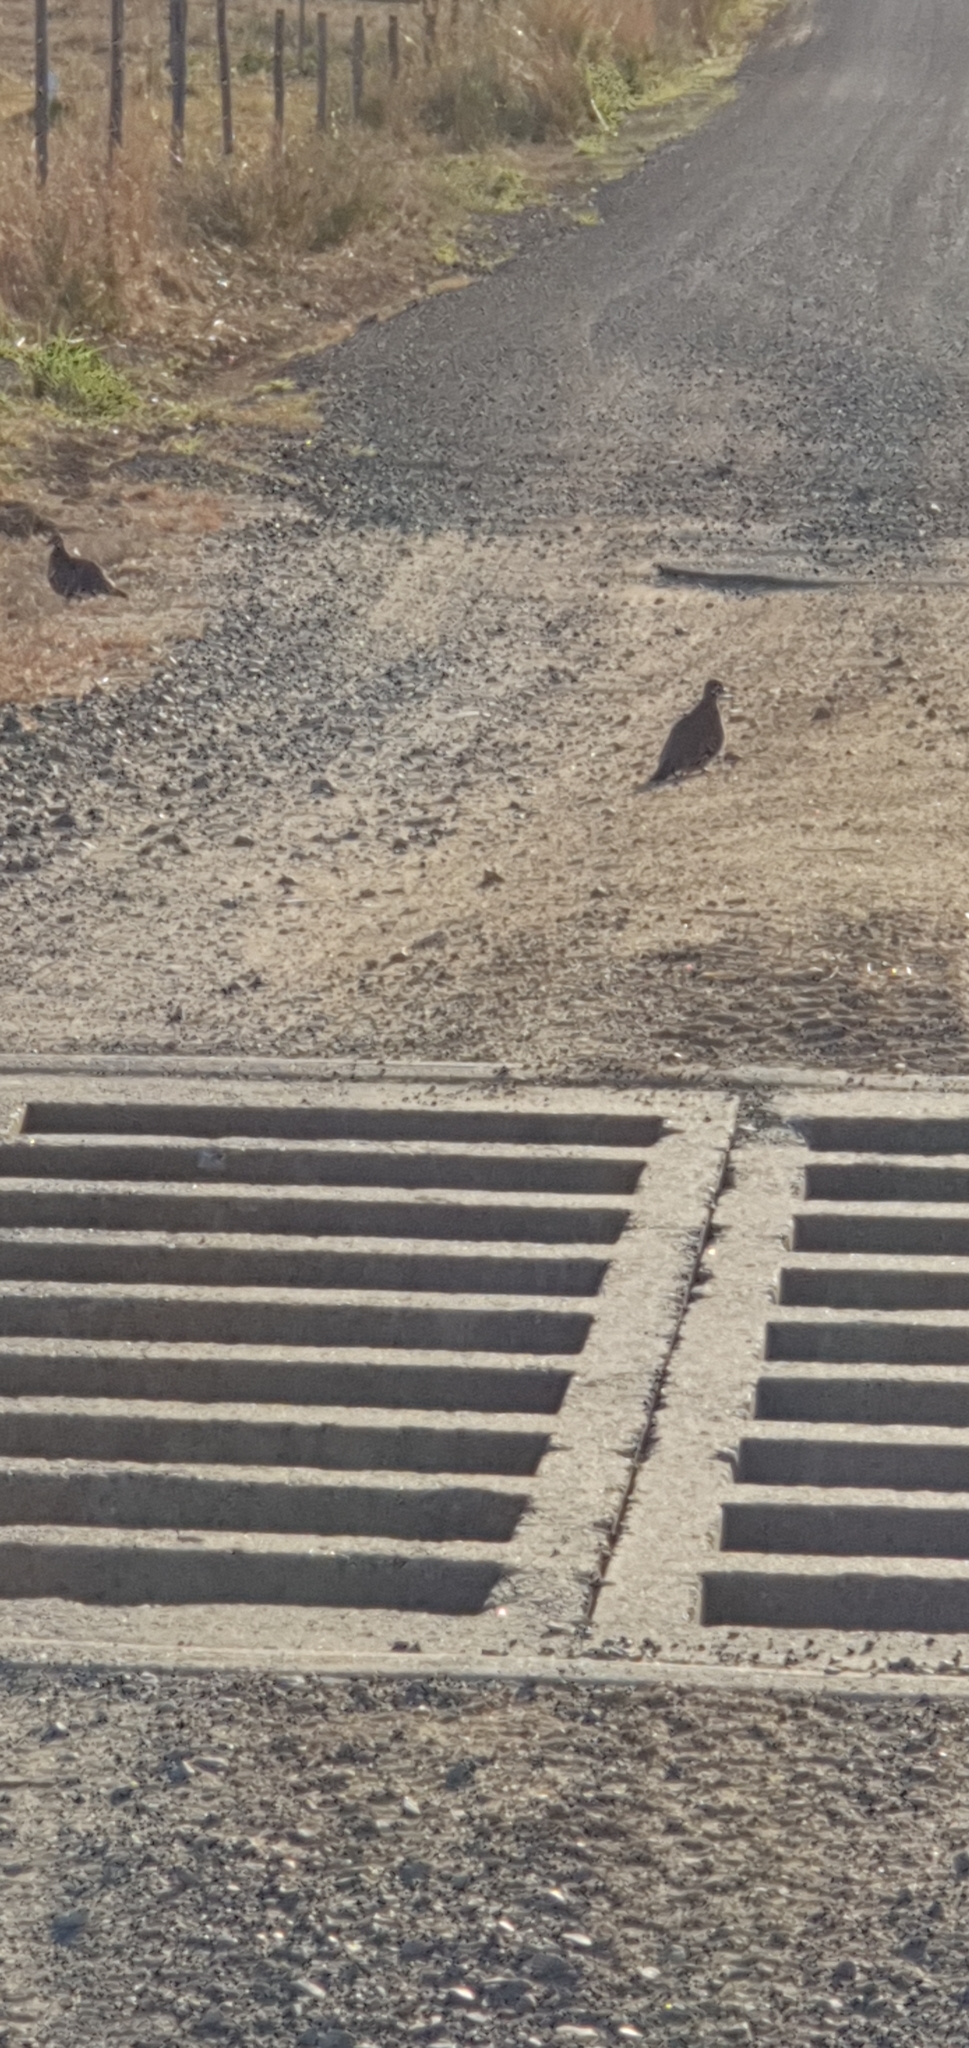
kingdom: Animalia
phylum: Chordata
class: Aves
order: Columbiformes
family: Columbidae
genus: Geophaps
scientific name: Geophaps scripta
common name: Squatter pigeon
